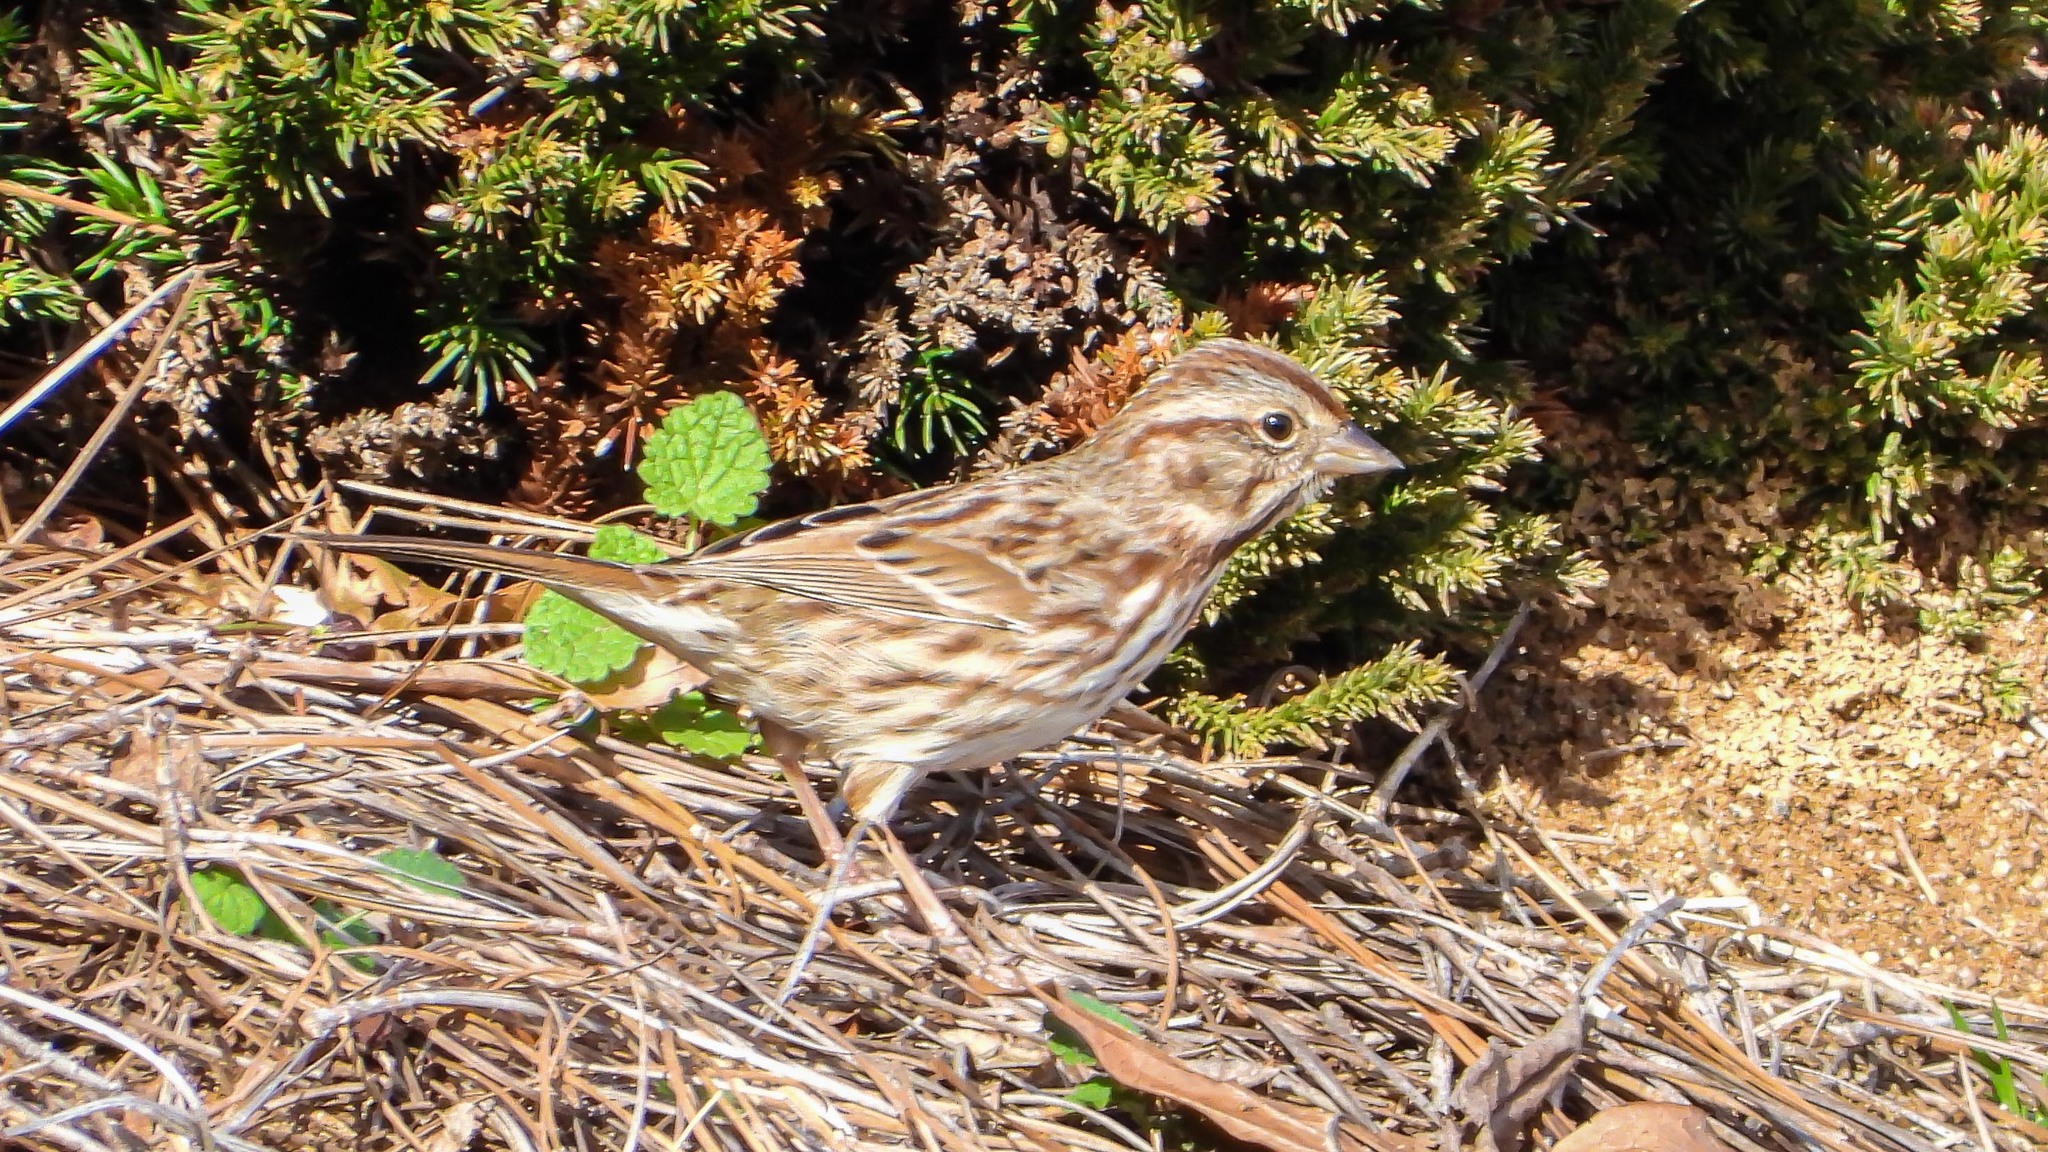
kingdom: Animalia
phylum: Chordata
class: Aves
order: Passeriformes
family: Passerellidae
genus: Melospiza
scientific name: Melospiza melodia
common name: Song sparrow
